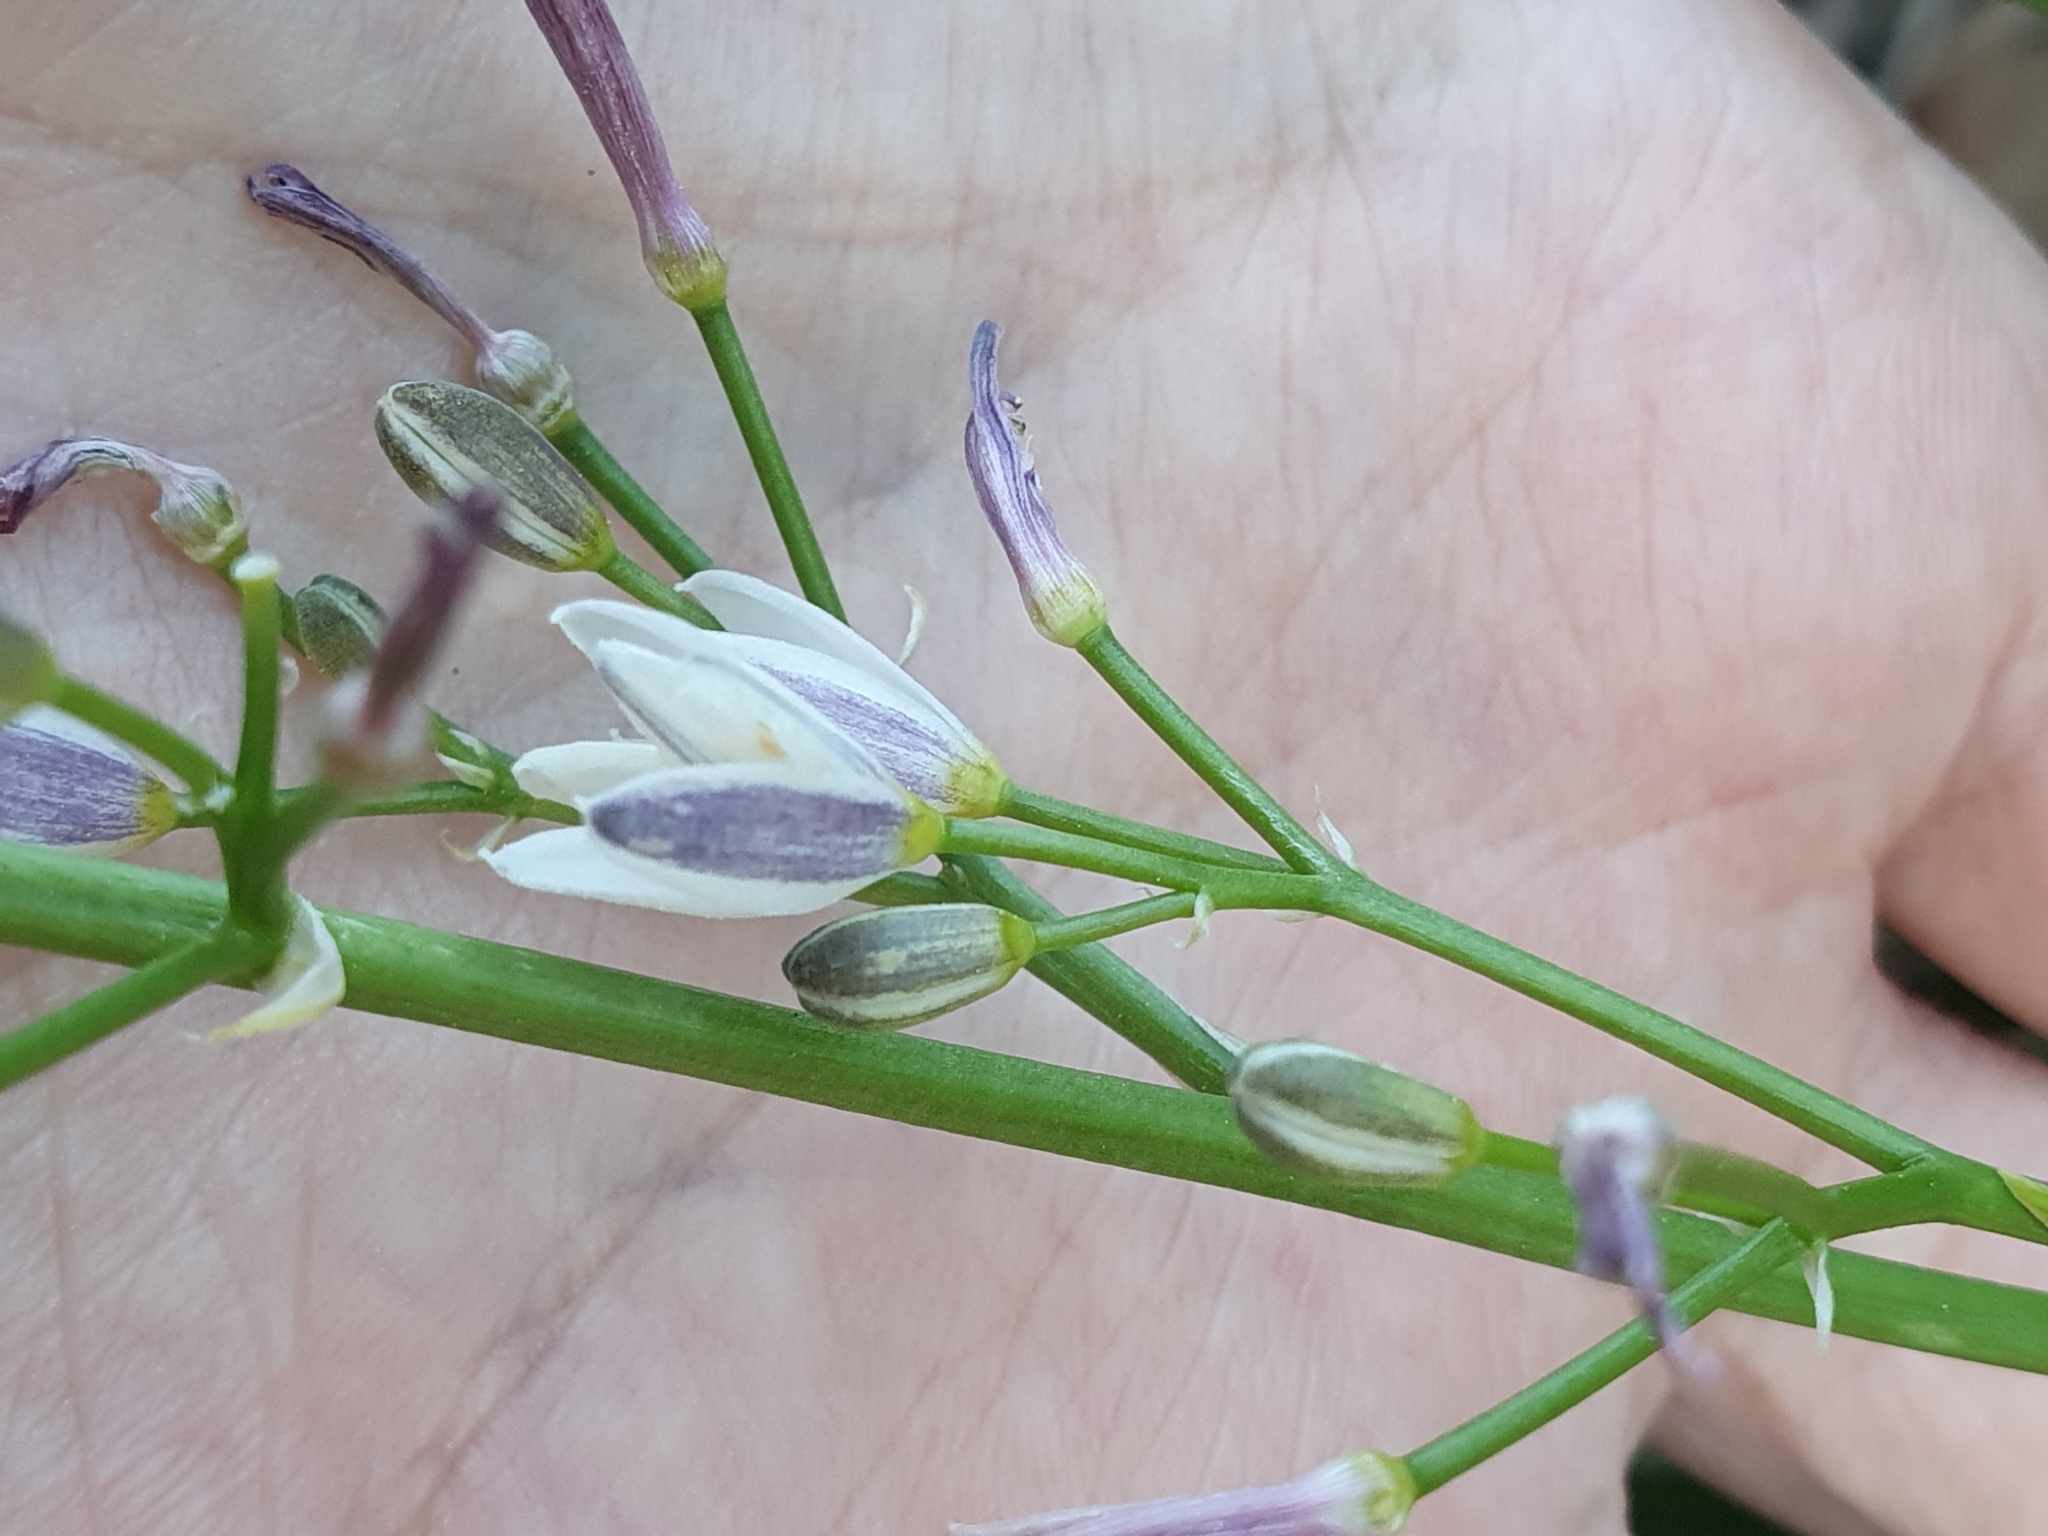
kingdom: Plantae
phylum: Tracheophyta
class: Liliopsida
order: Asparagales
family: Asphodelaceae
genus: Simethis
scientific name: Simethis mattiazzii
